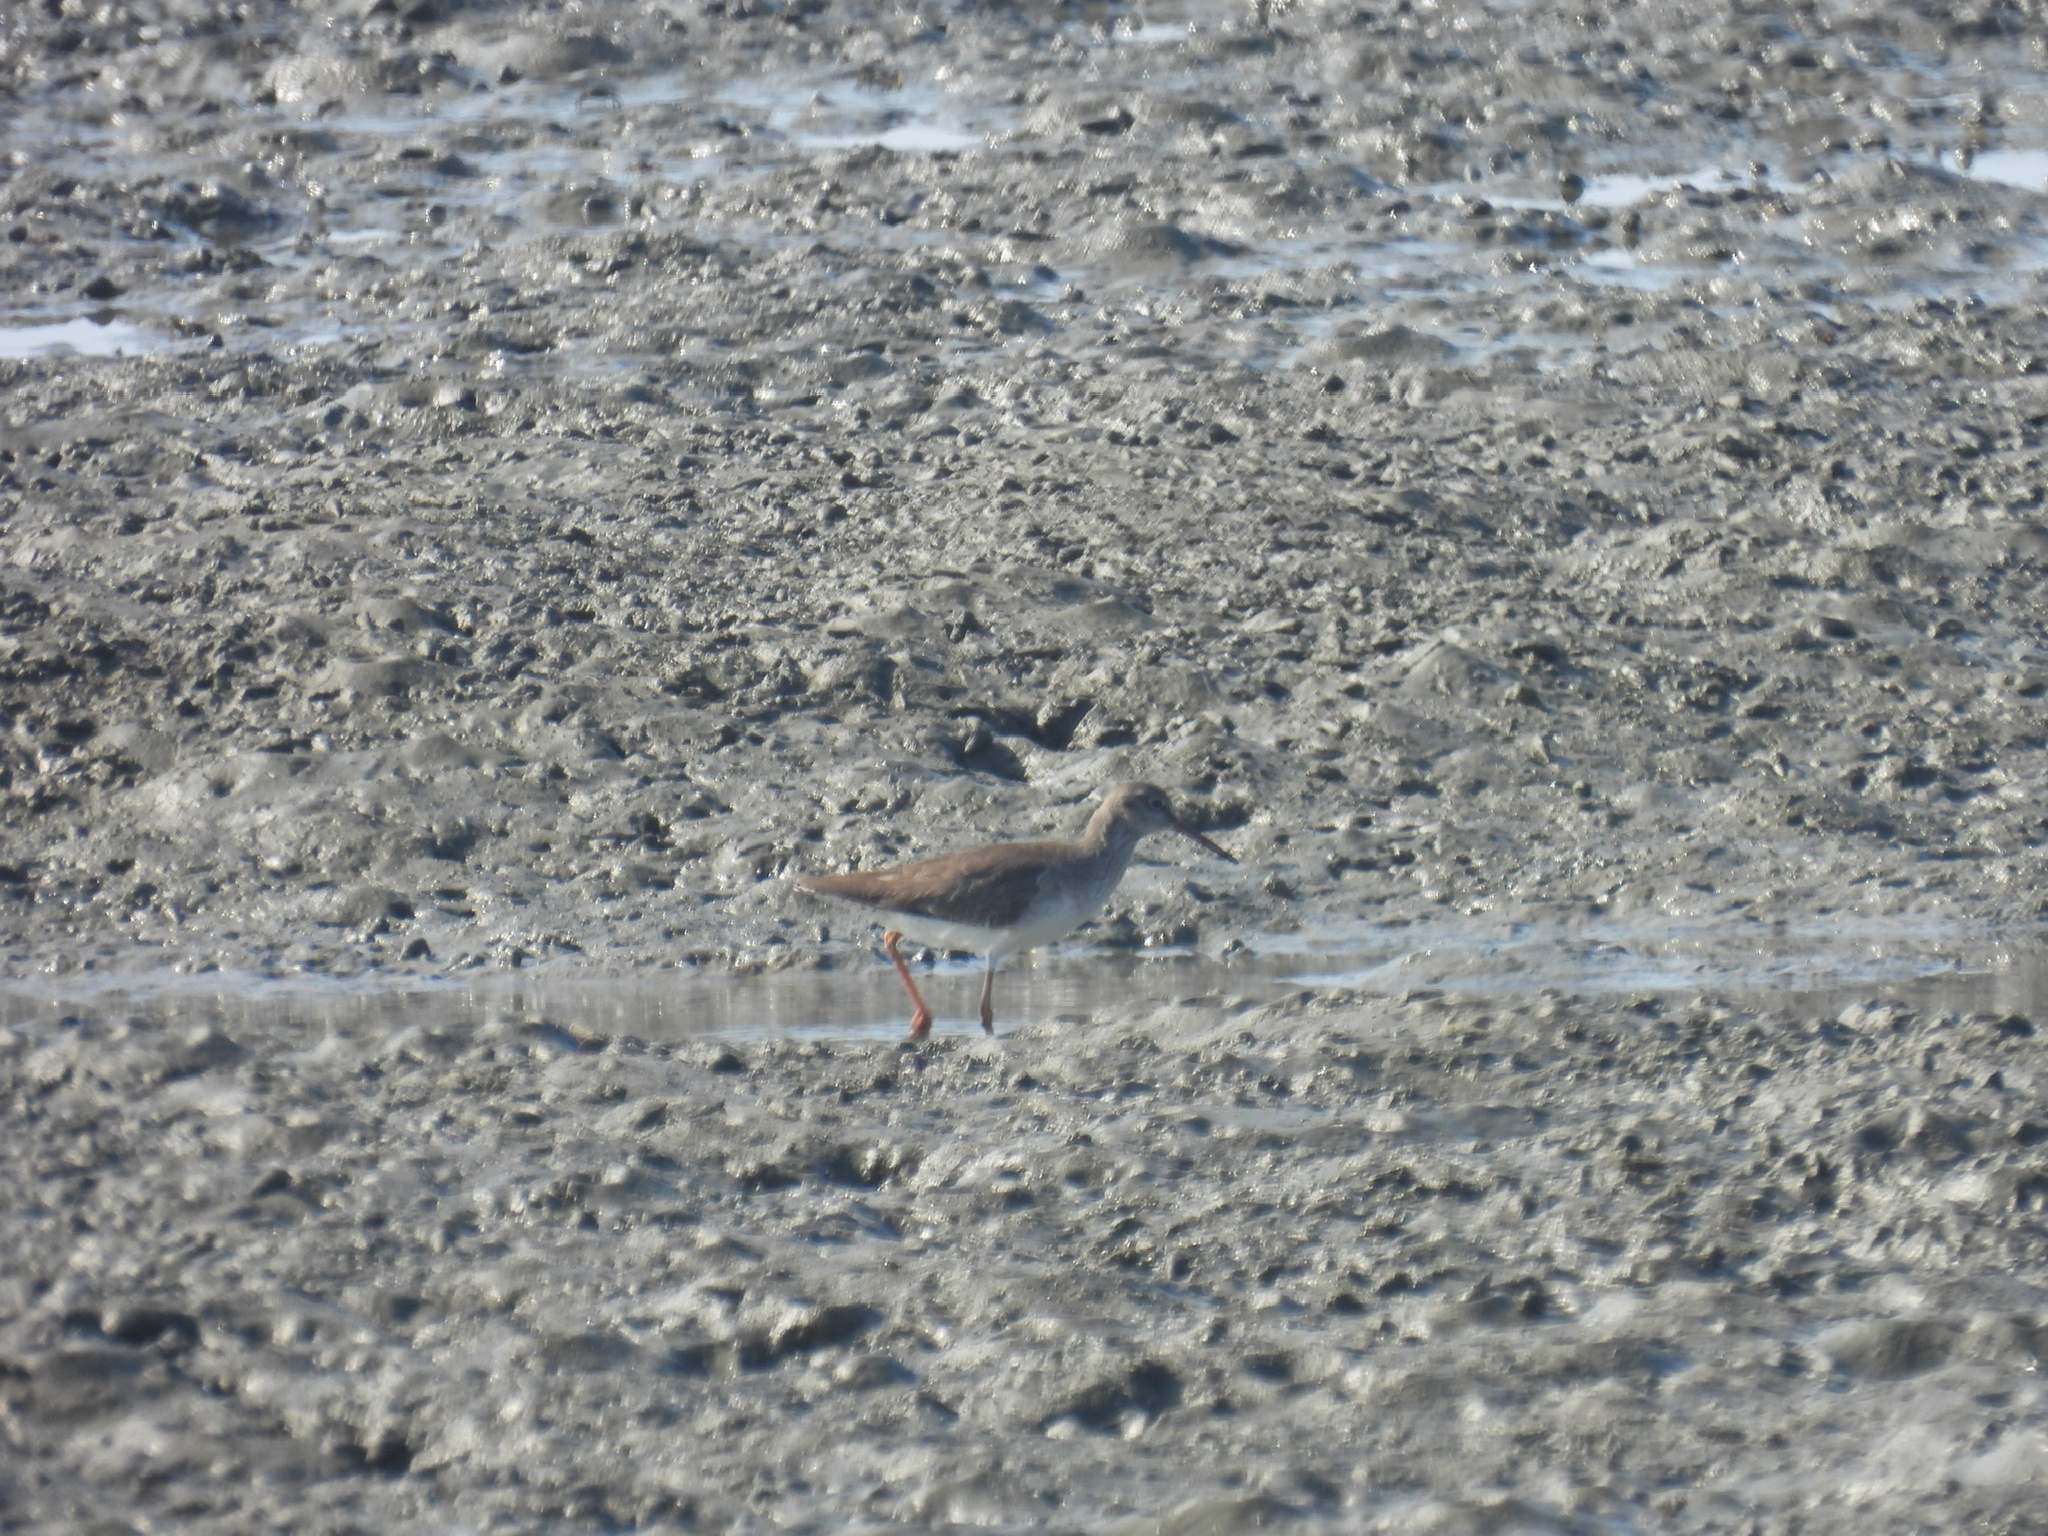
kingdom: Animalia
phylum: Chordata
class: Aves
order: Charadriiformes
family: Scolopacidae
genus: Tringa
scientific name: Tringa totanus
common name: Common redshank
